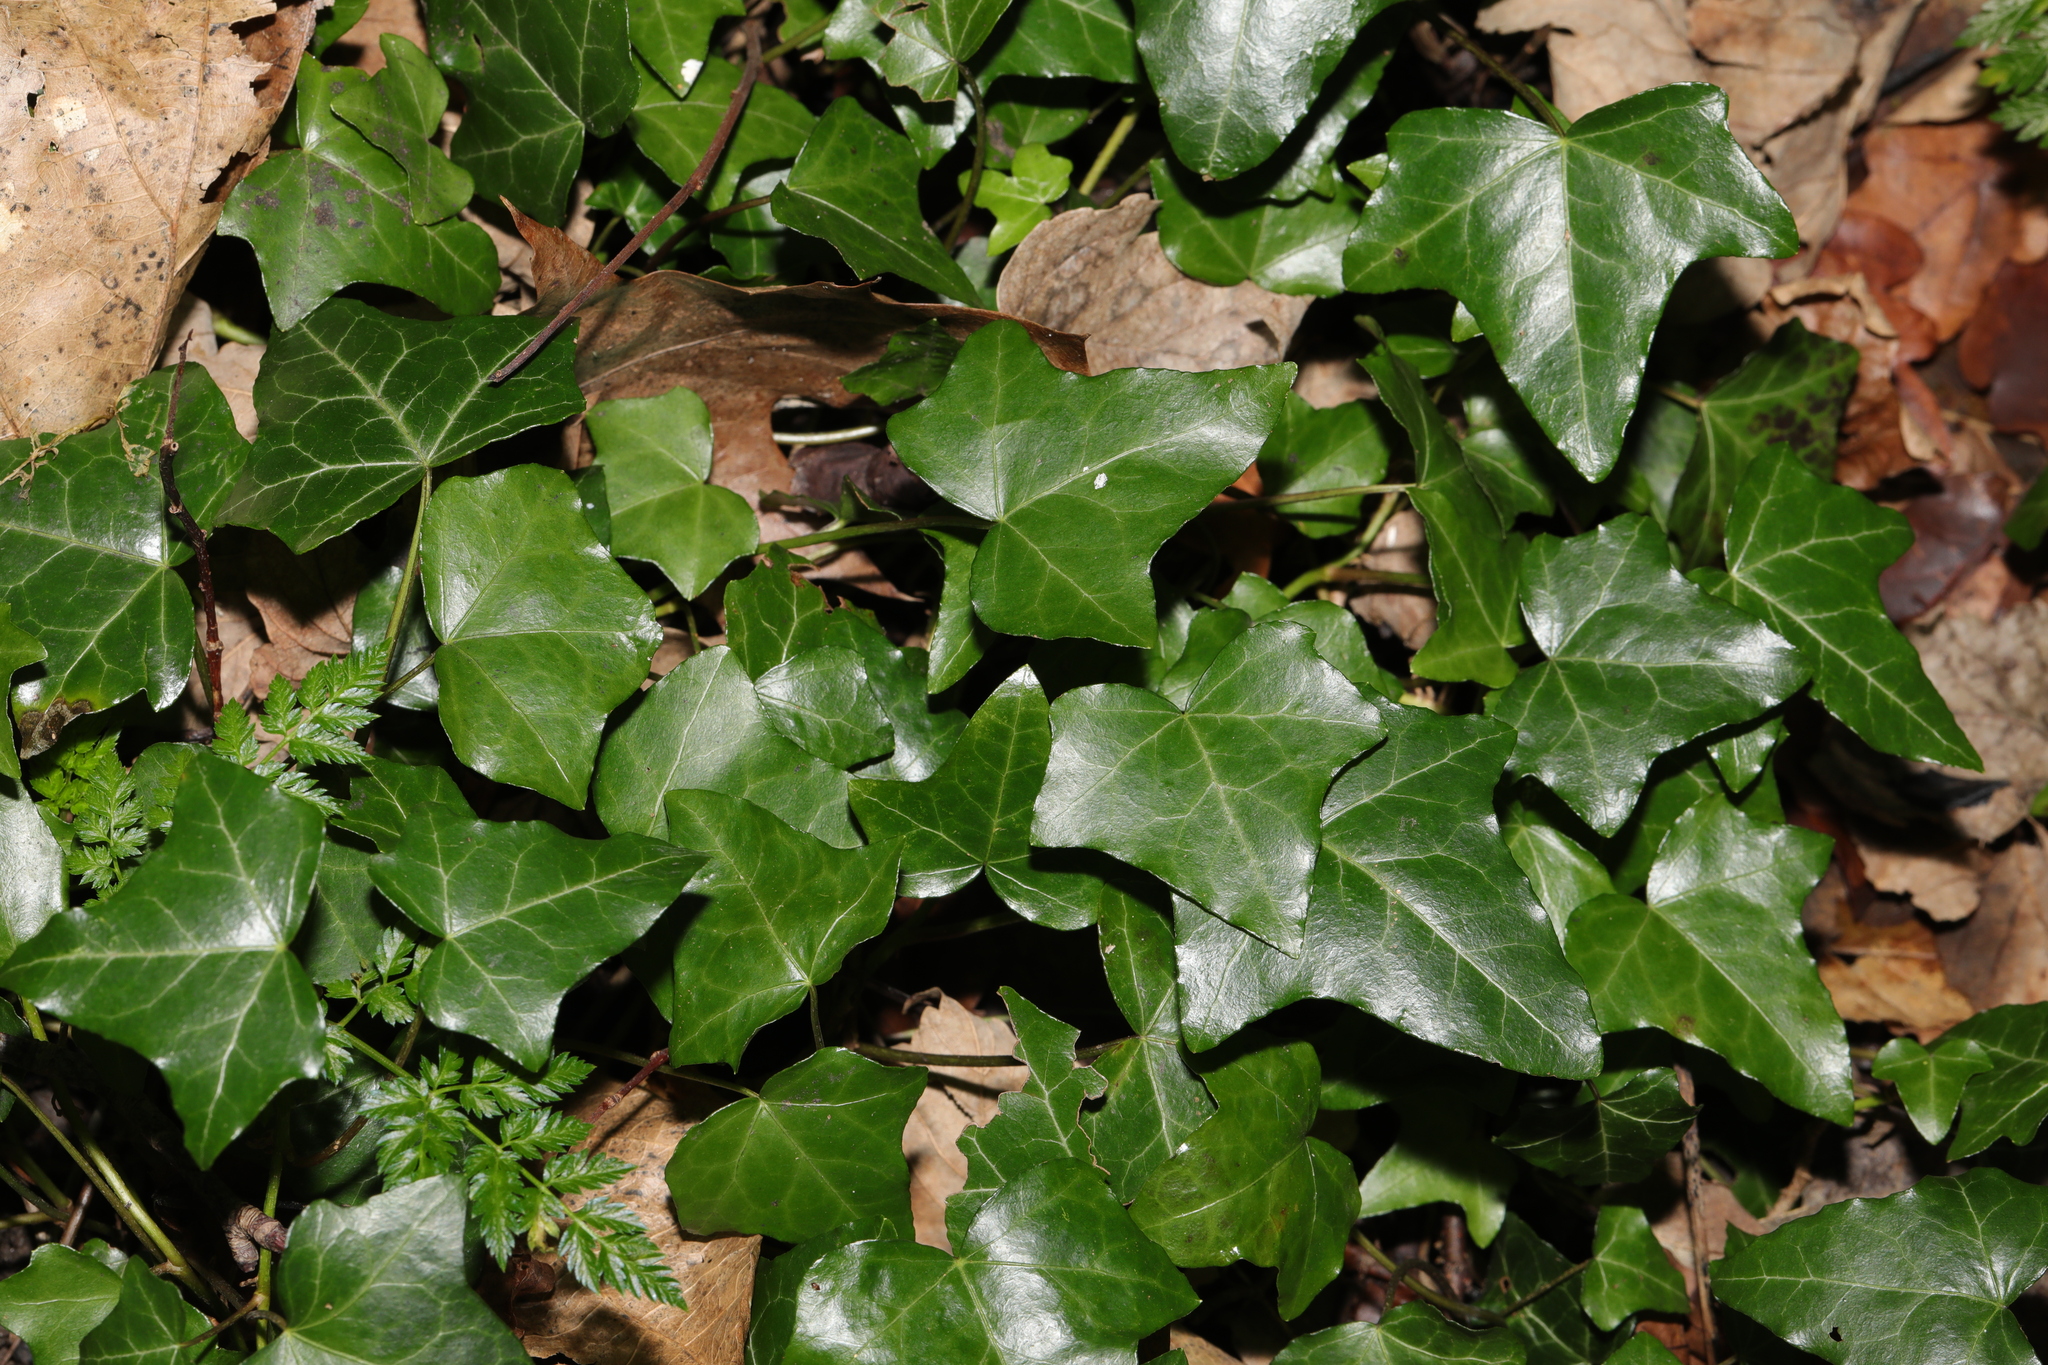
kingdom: Plantae
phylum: Tracheophyta
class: Magnoliopsida
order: Apiales
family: Araliaceae
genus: Hedera
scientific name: Hedera helix
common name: Ivy
